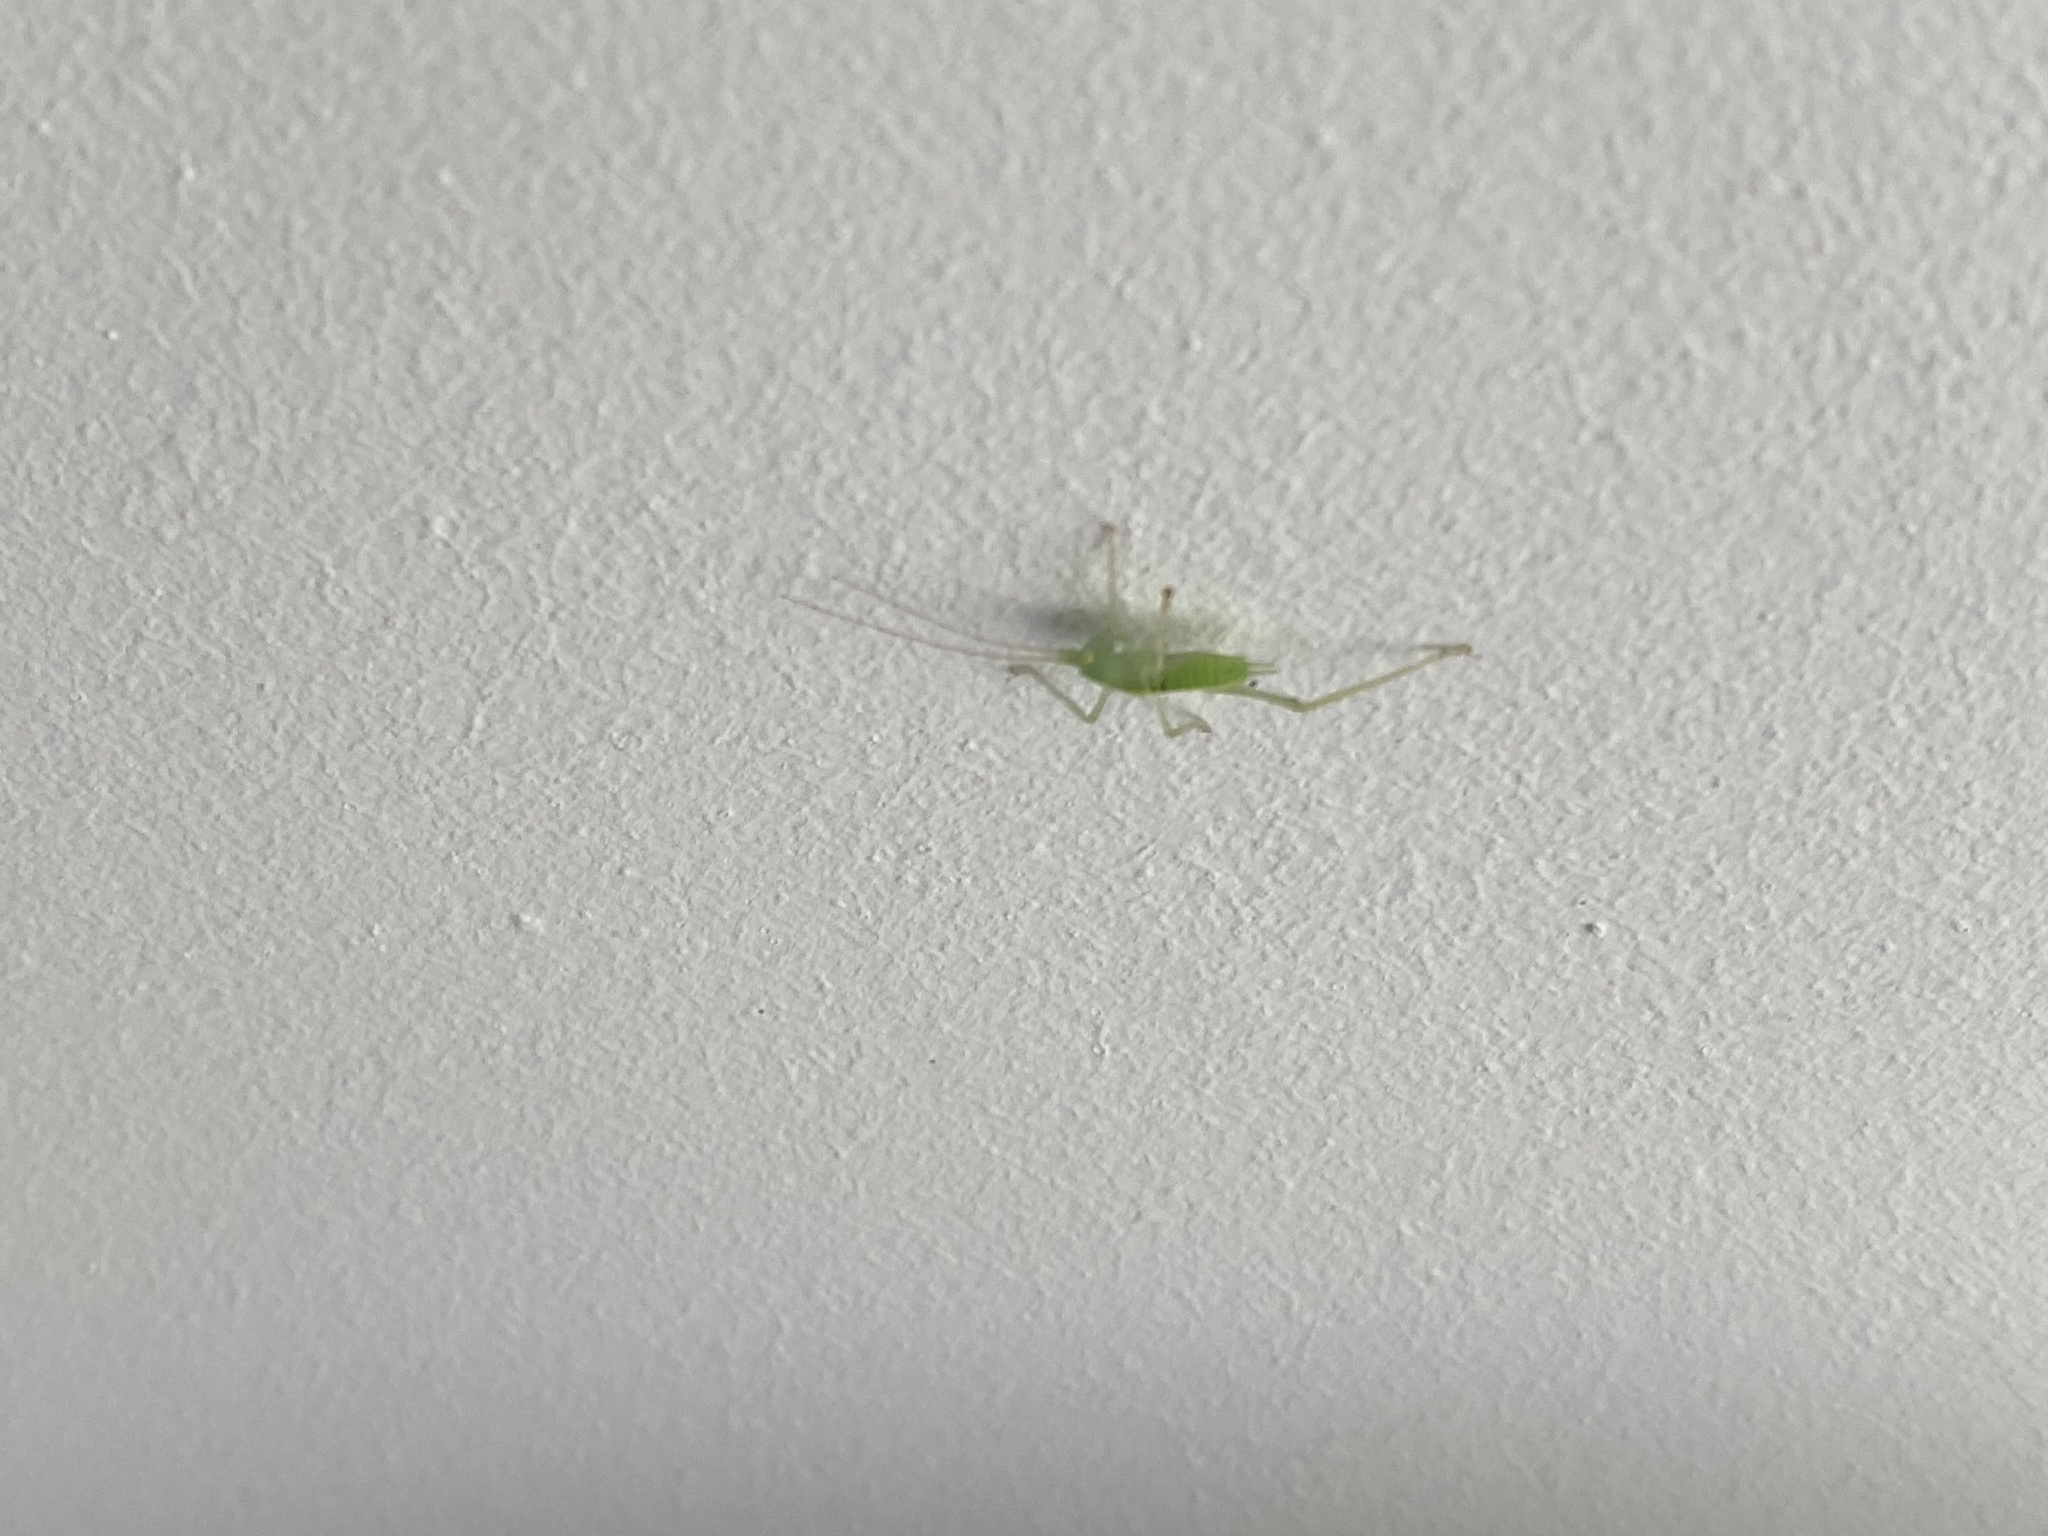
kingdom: Animalia
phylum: Arthropoda
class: Insecta
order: Orthoptera
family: Tettigoniidae
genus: Meconema
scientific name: Meconema
